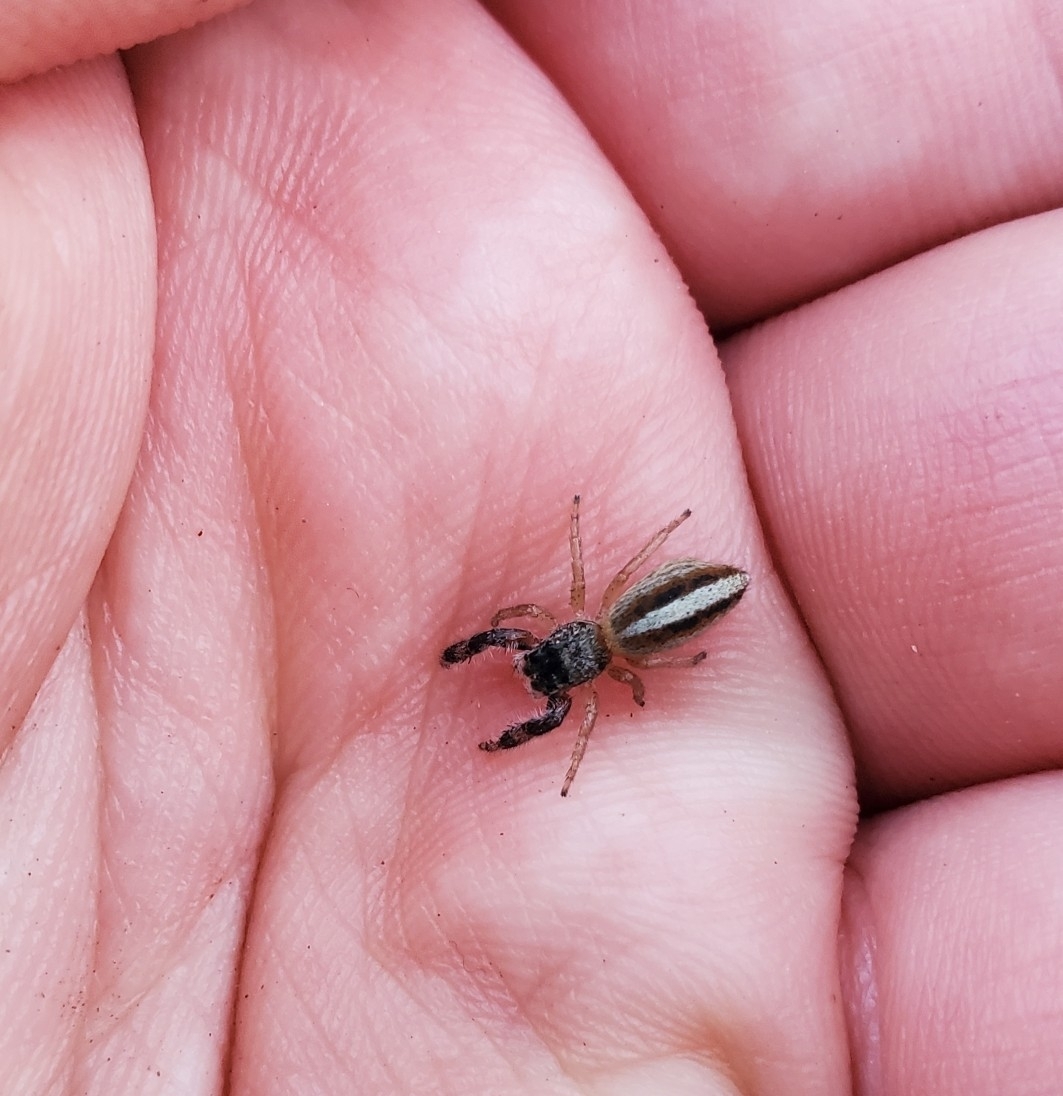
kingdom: Animalia
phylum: Arthropoda
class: Arachnida
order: Araneae
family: Salticidae
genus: Marpissa
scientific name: Marpissa formosa
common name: Short-bellied slender jumping spider
